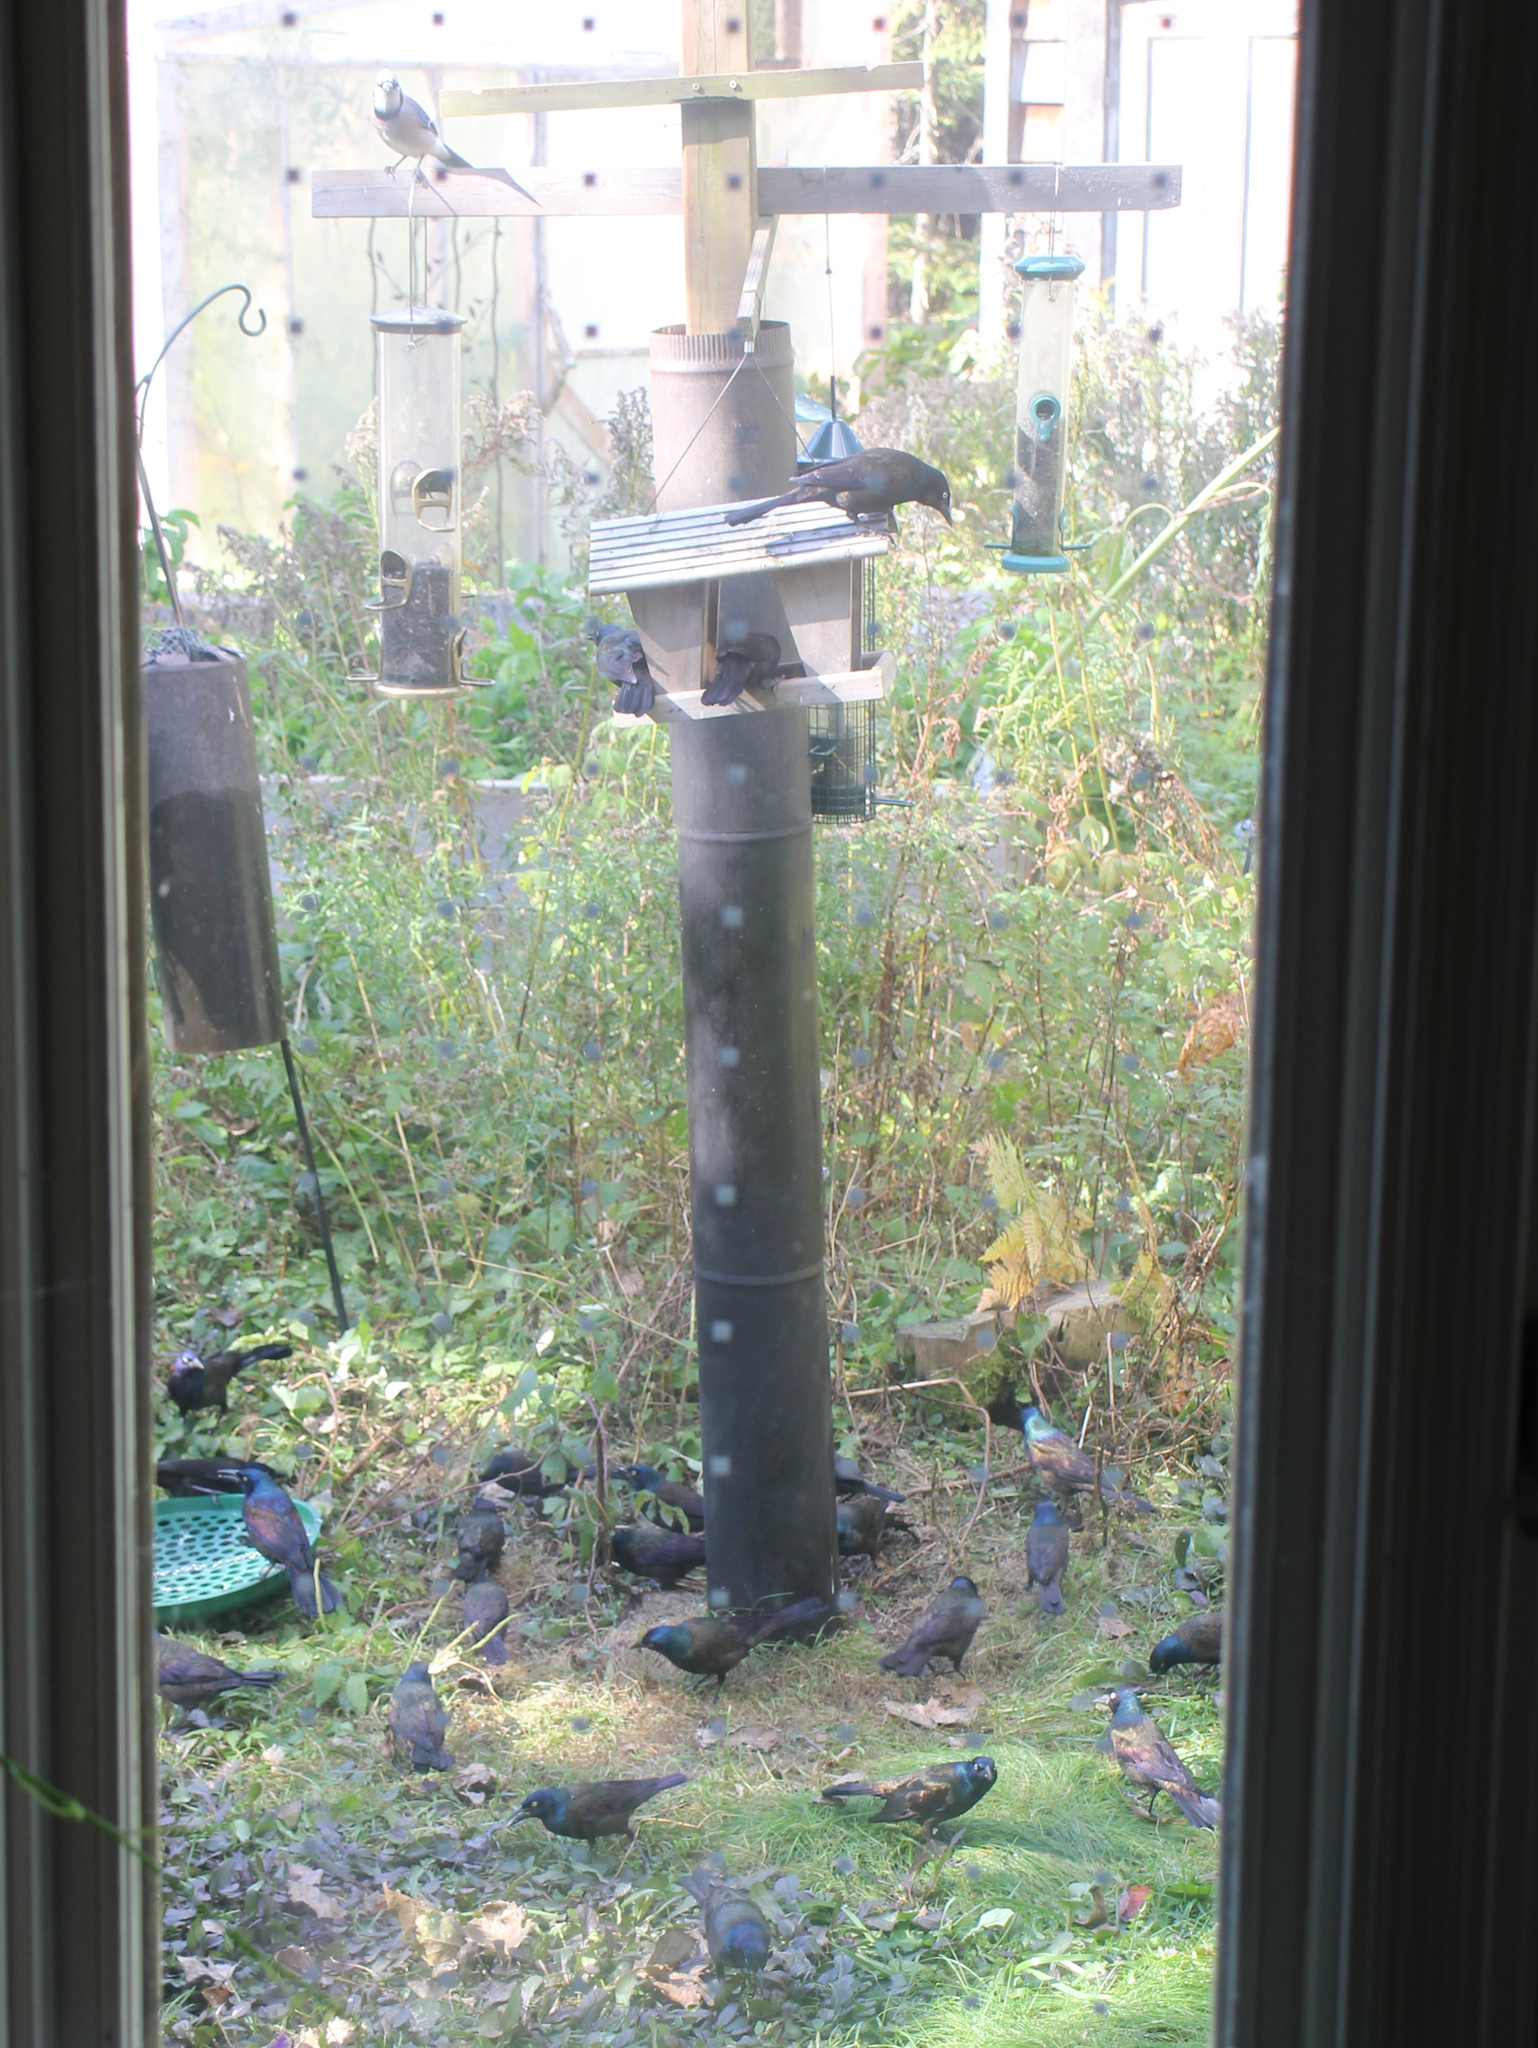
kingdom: Animalia
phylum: Chordata
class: Aves
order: Passeriformes
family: Icteridae
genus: Quiscalus
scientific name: Quiscalus quiscula
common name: Common grackle
